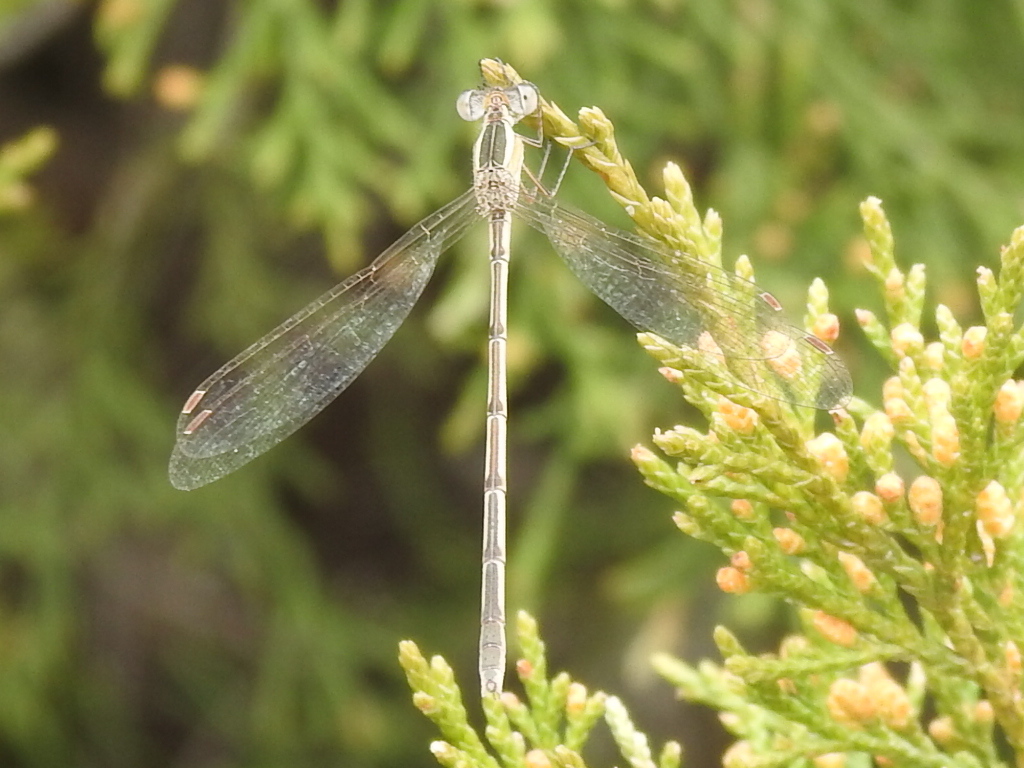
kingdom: Animalia
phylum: Arthropoda
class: Insecta
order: Odonata
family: Lestidae
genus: Lestes
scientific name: Lestes alacer
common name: Plateau spreadwing
